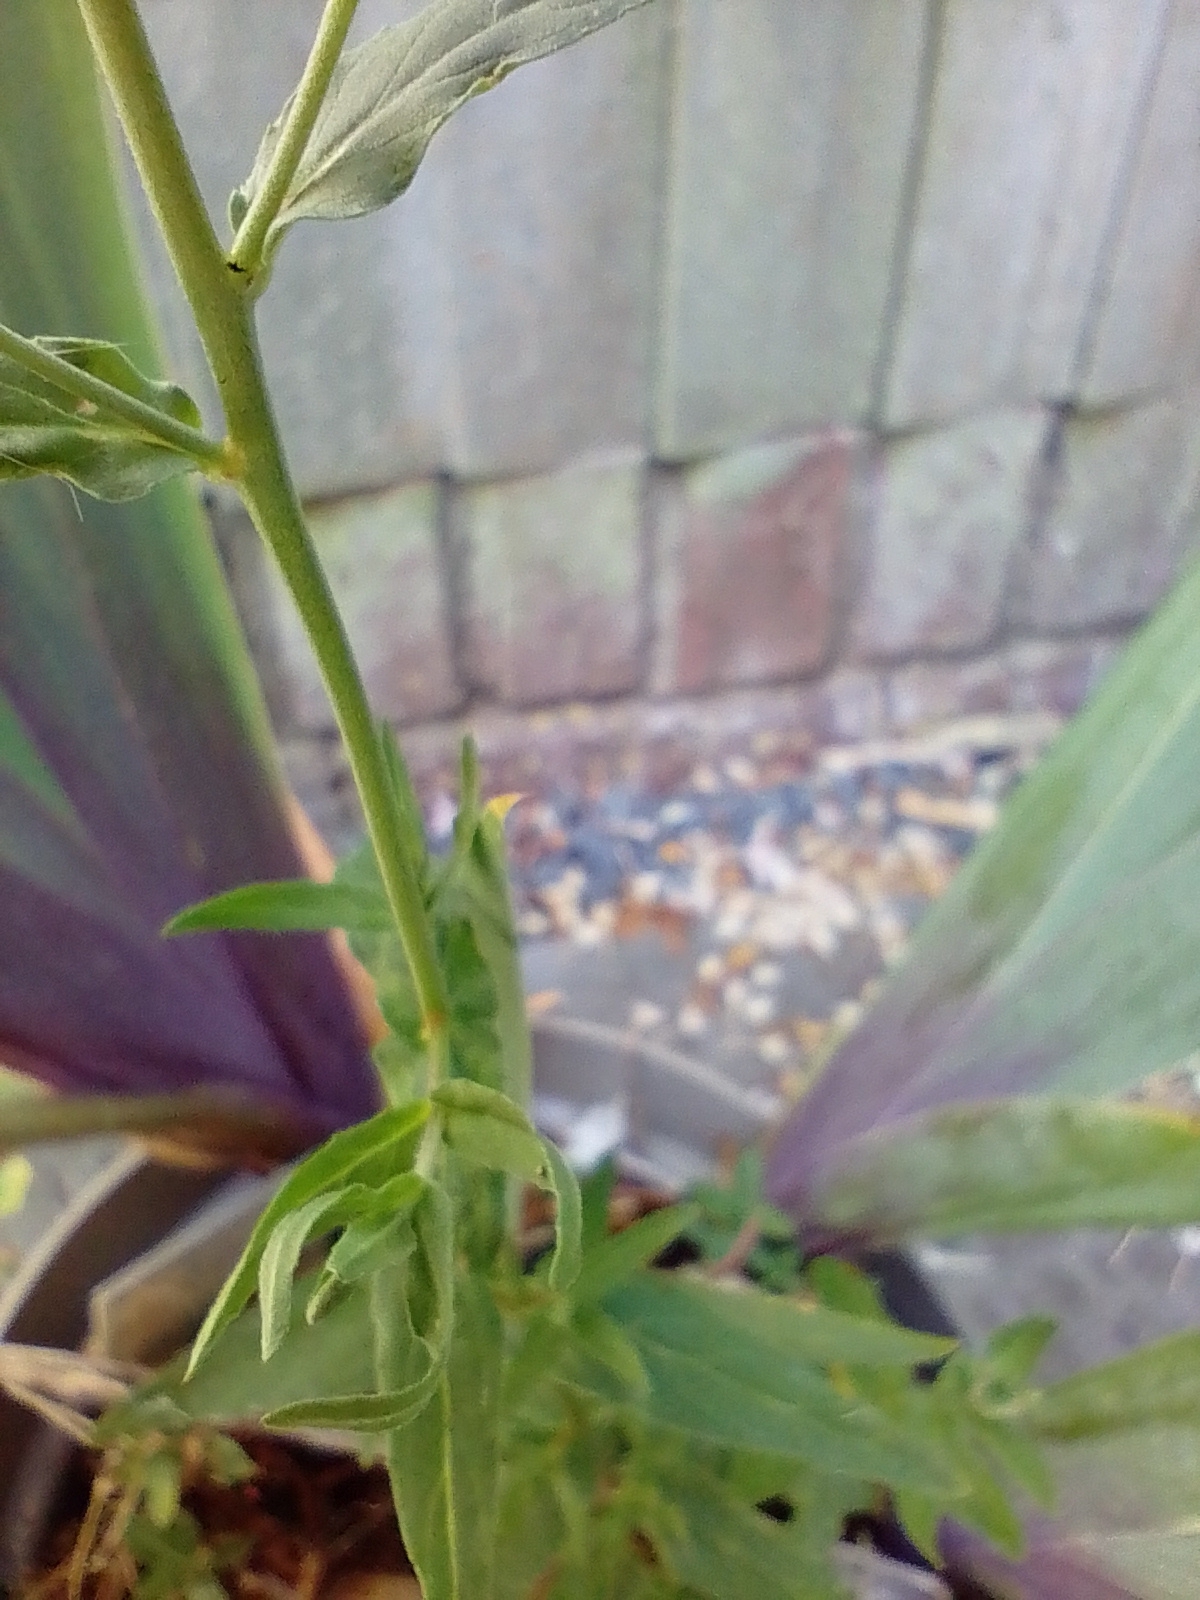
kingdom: Plantae
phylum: Tracheophyta
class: Magnoliopsida
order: Myrtales
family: Onagraceae
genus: Epilobium
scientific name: Epilobium parviflorum
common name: Hoary willowherb
